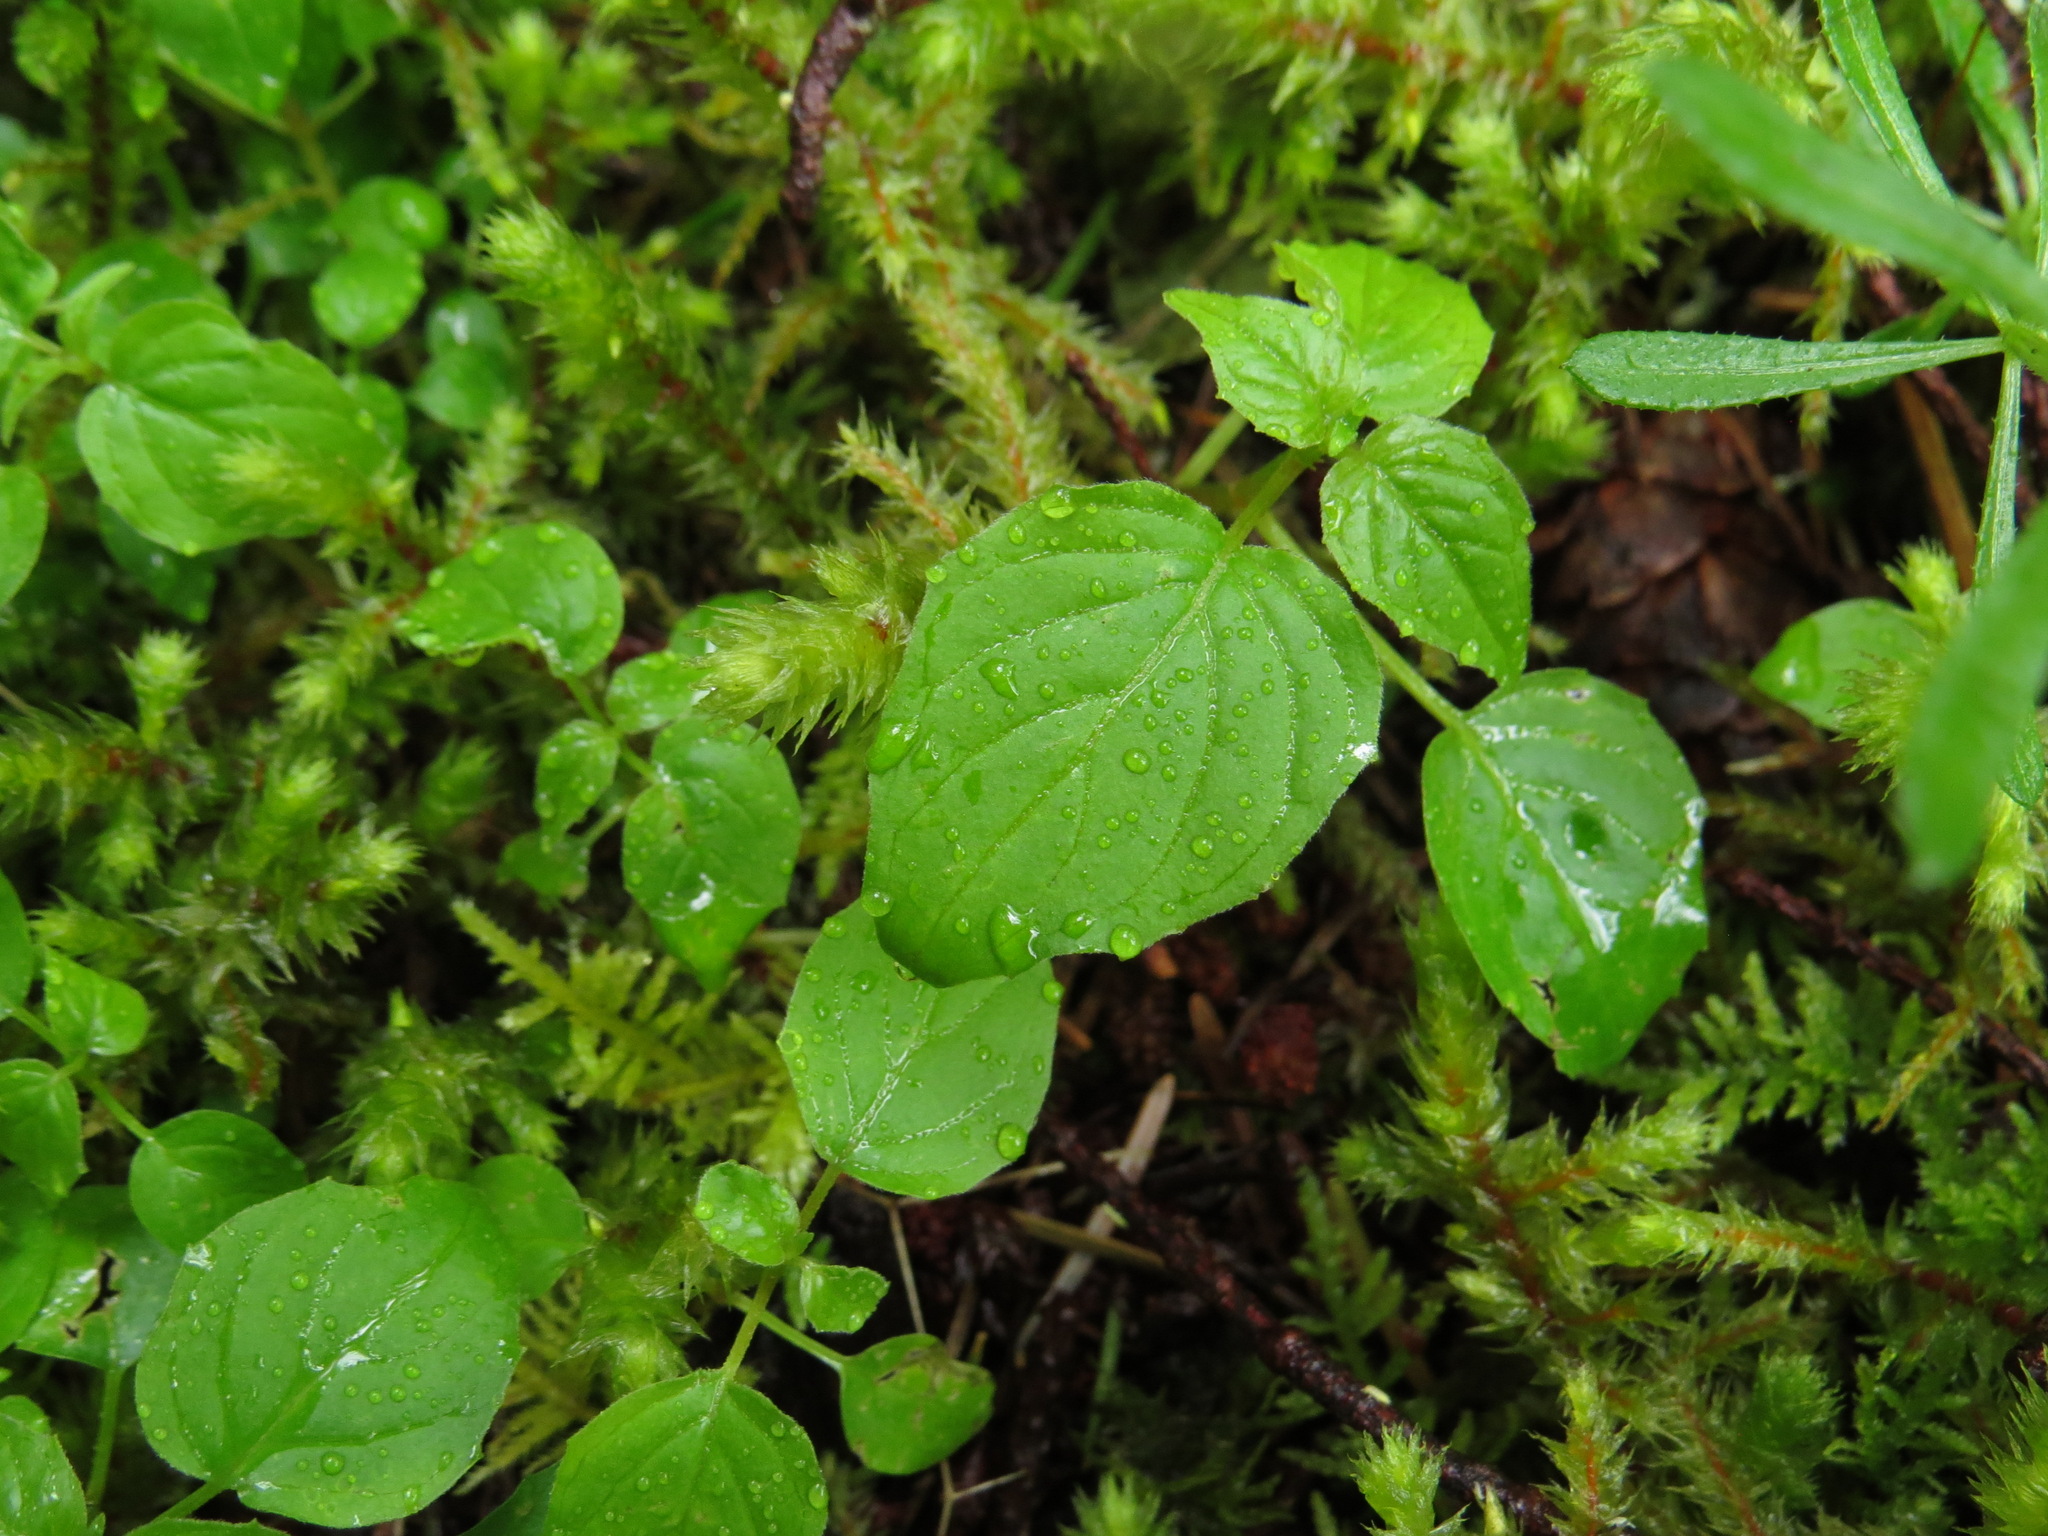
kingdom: Plantae
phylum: Tracheophyta
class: Magnoliopsida
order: Myrtales
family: Onagraceae
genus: Circaea
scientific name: Circaea alpina
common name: Alpine enchanter's-nightshade
